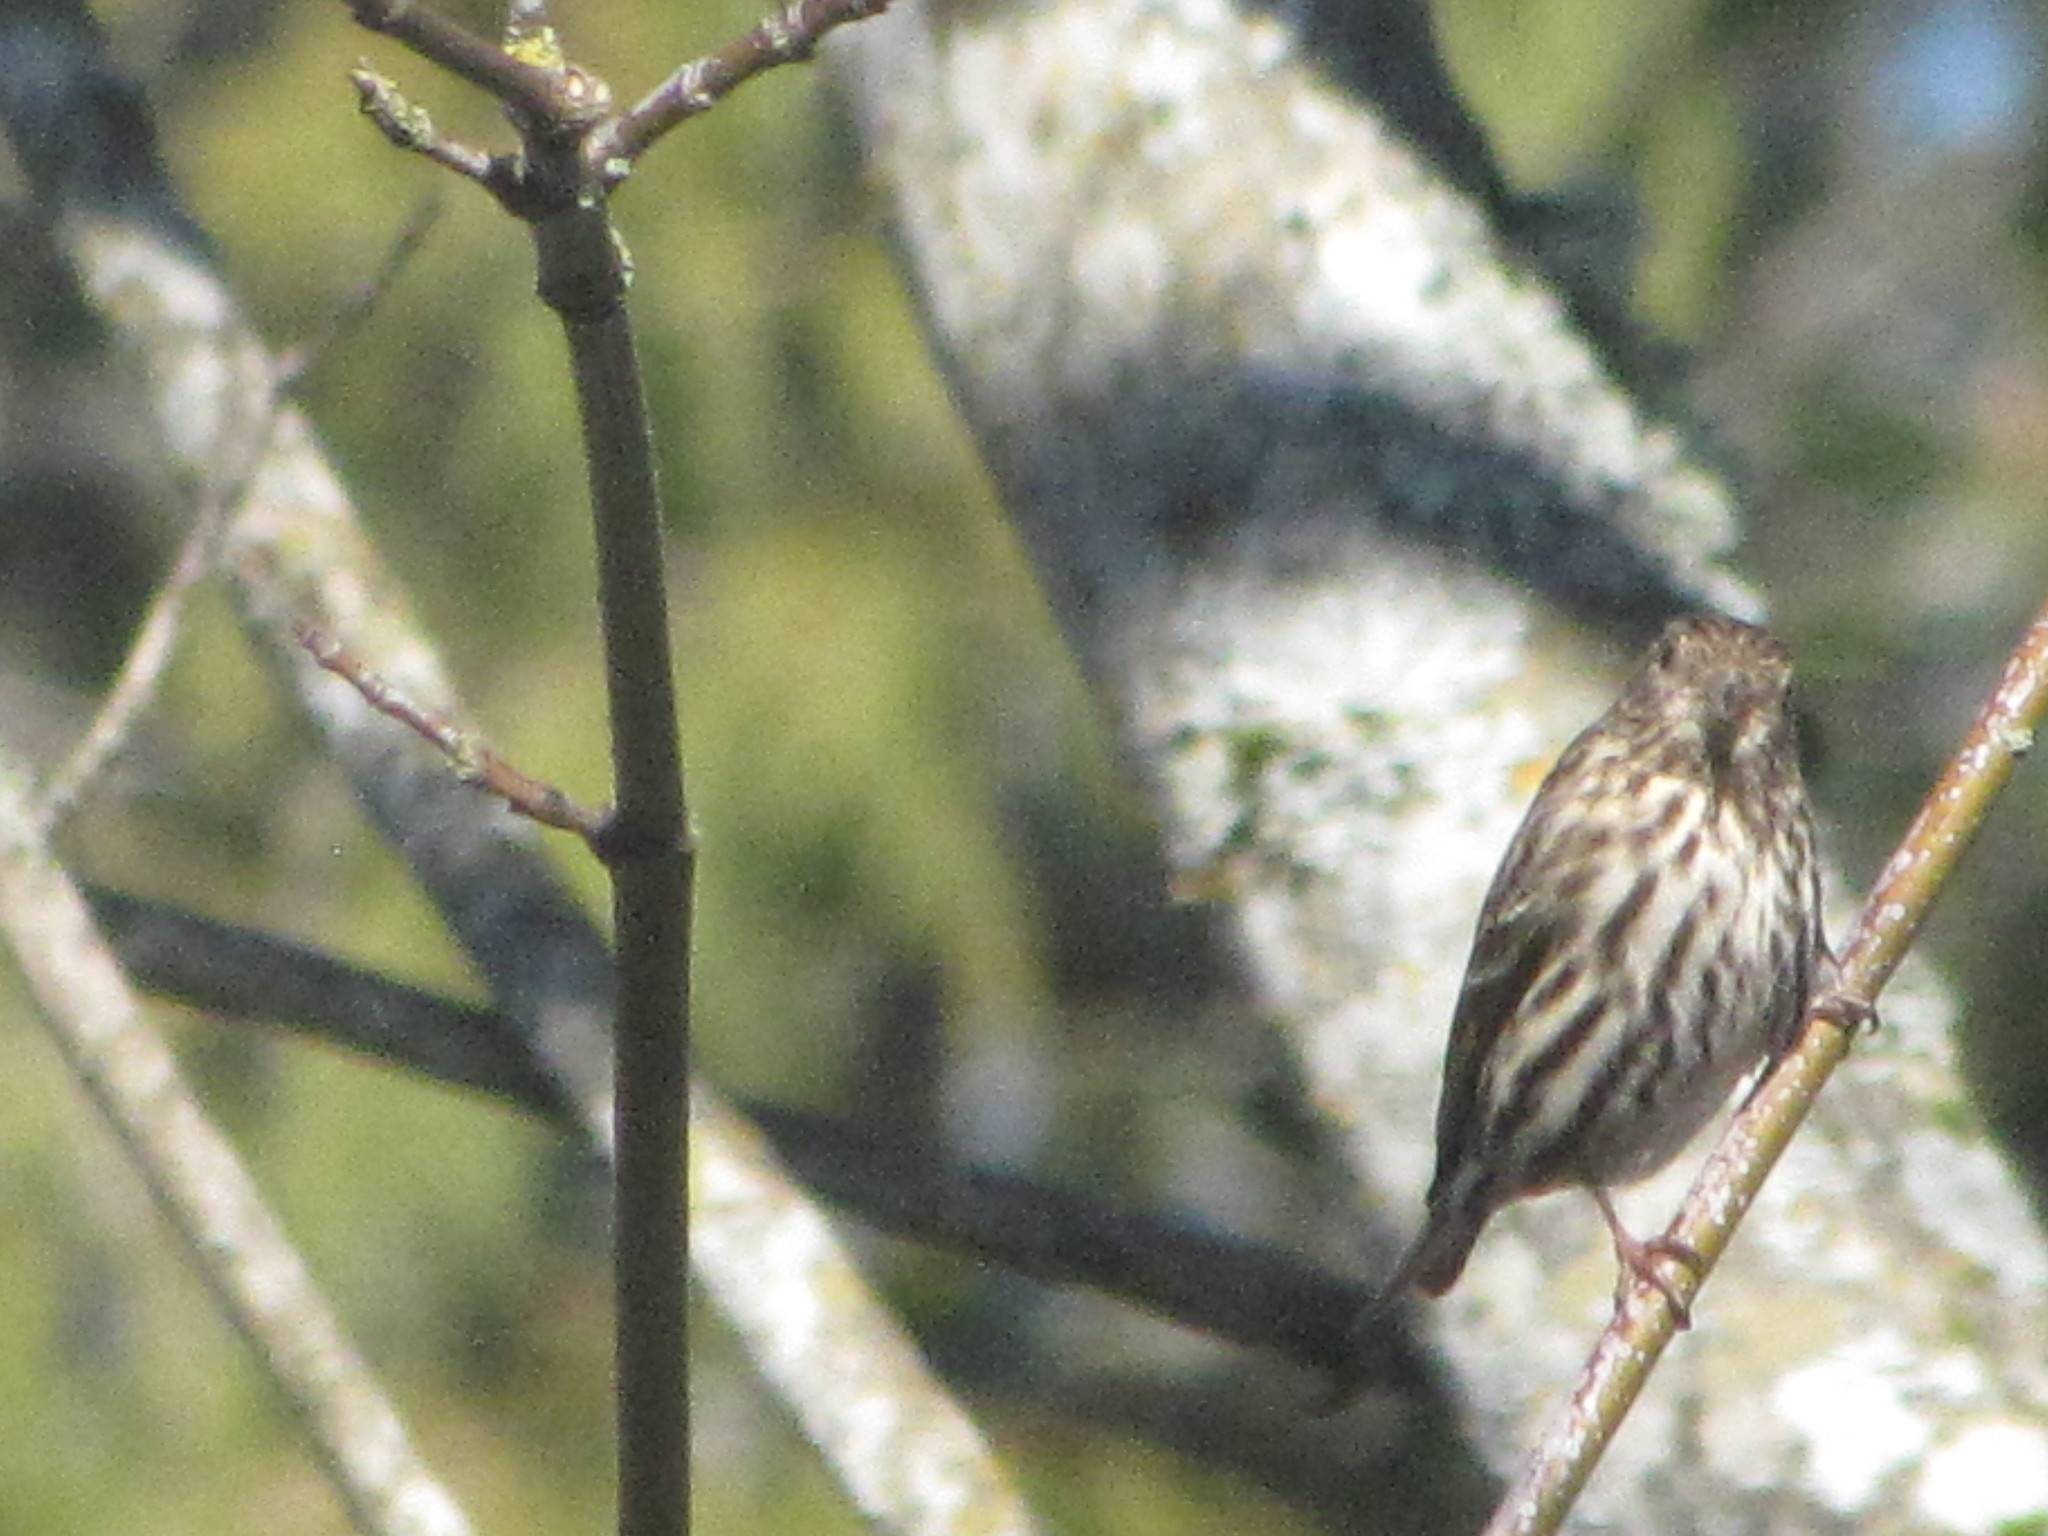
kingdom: Animalia
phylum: Chordata
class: Aves
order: Passeriformes
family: Fringillidae
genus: Spinus
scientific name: Spinus pinus
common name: Pine siskin
